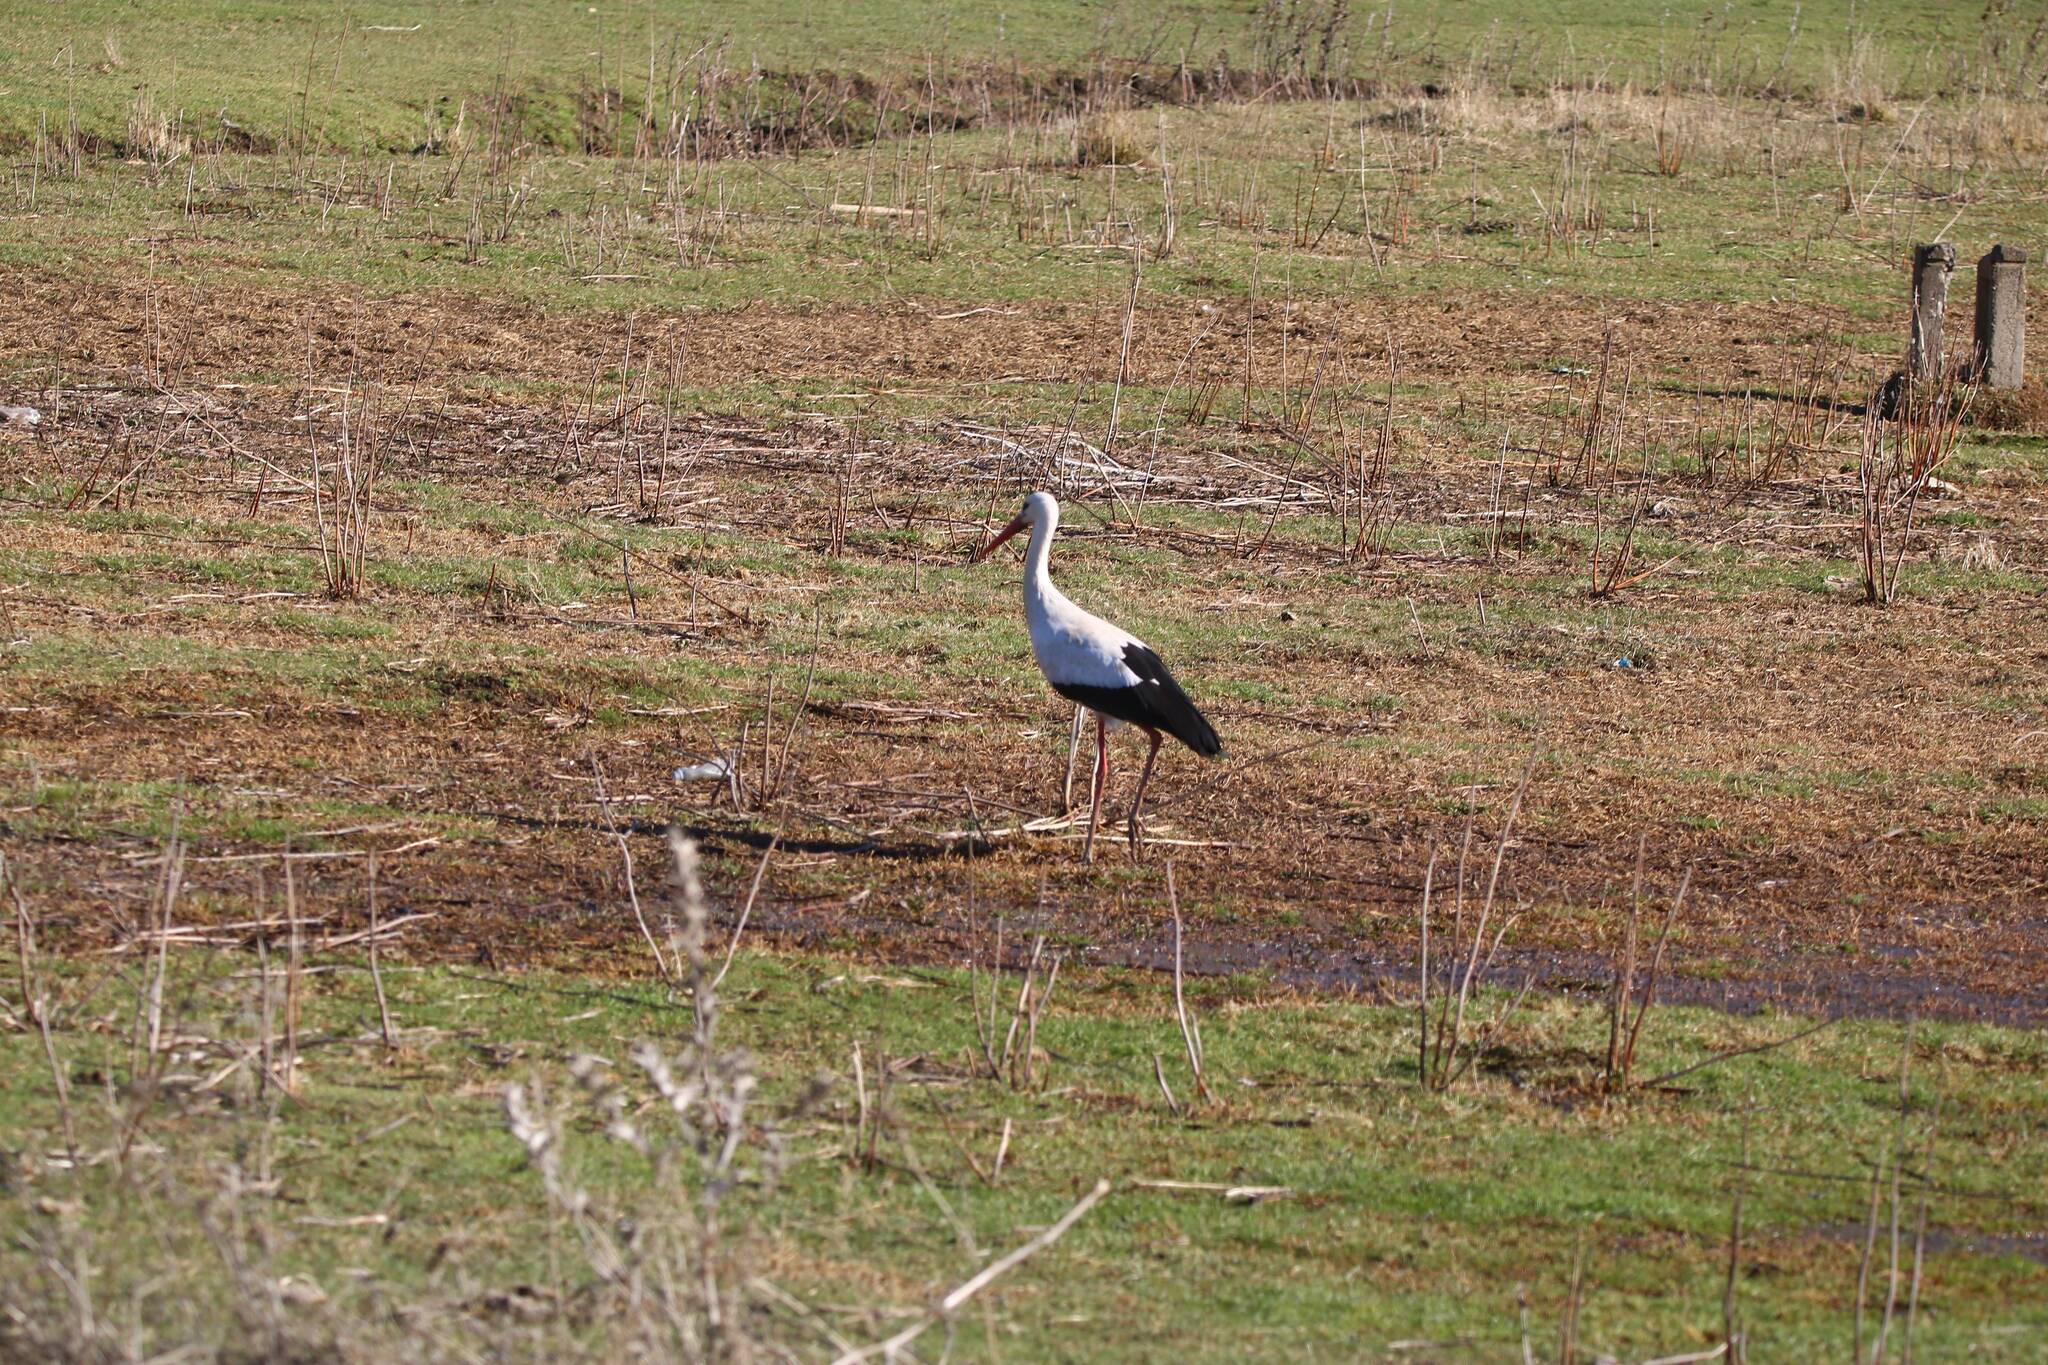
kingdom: Animalia
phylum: Chordata
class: Aves
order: Ciconiiformes
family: Ciconiidae
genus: Ciconia
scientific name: Ciconia ciconia
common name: White stork
